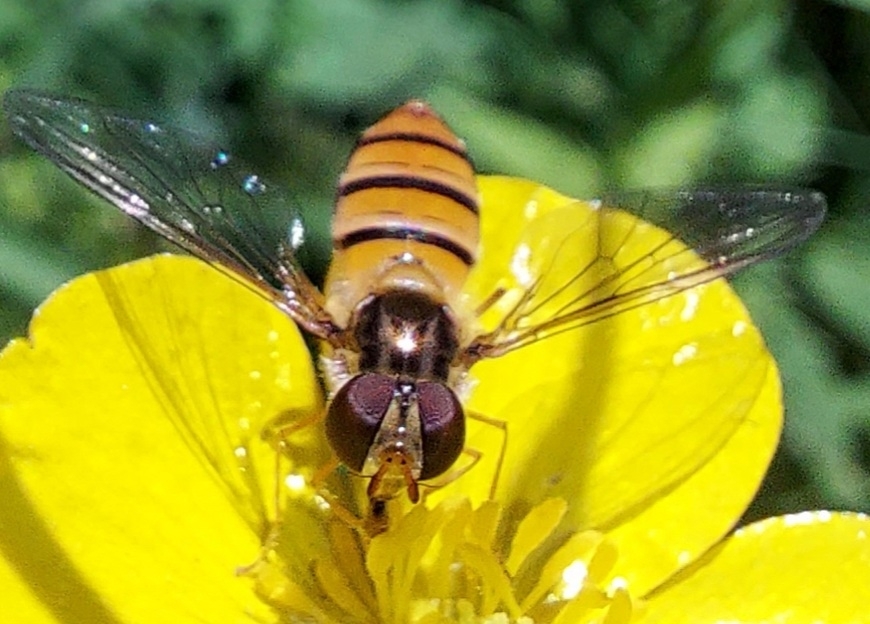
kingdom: Animalia
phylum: Arthropoda
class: Insecta
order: Diptera
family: Syrphidae
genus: Episyrphus
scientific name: Episyrphus balteatus
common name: Marmalade hoverfly
